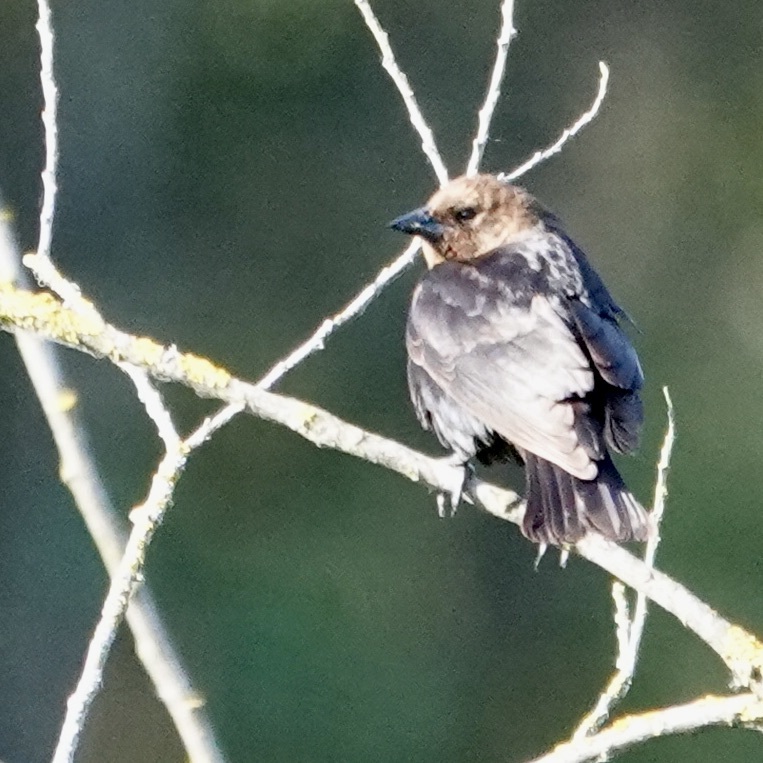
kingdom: Animalia
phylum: Chordata
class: Aves
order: Passeriformes
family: Icteridae
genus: Molothrus
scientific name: Molothrus ater
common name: Brown-headed cowbird
